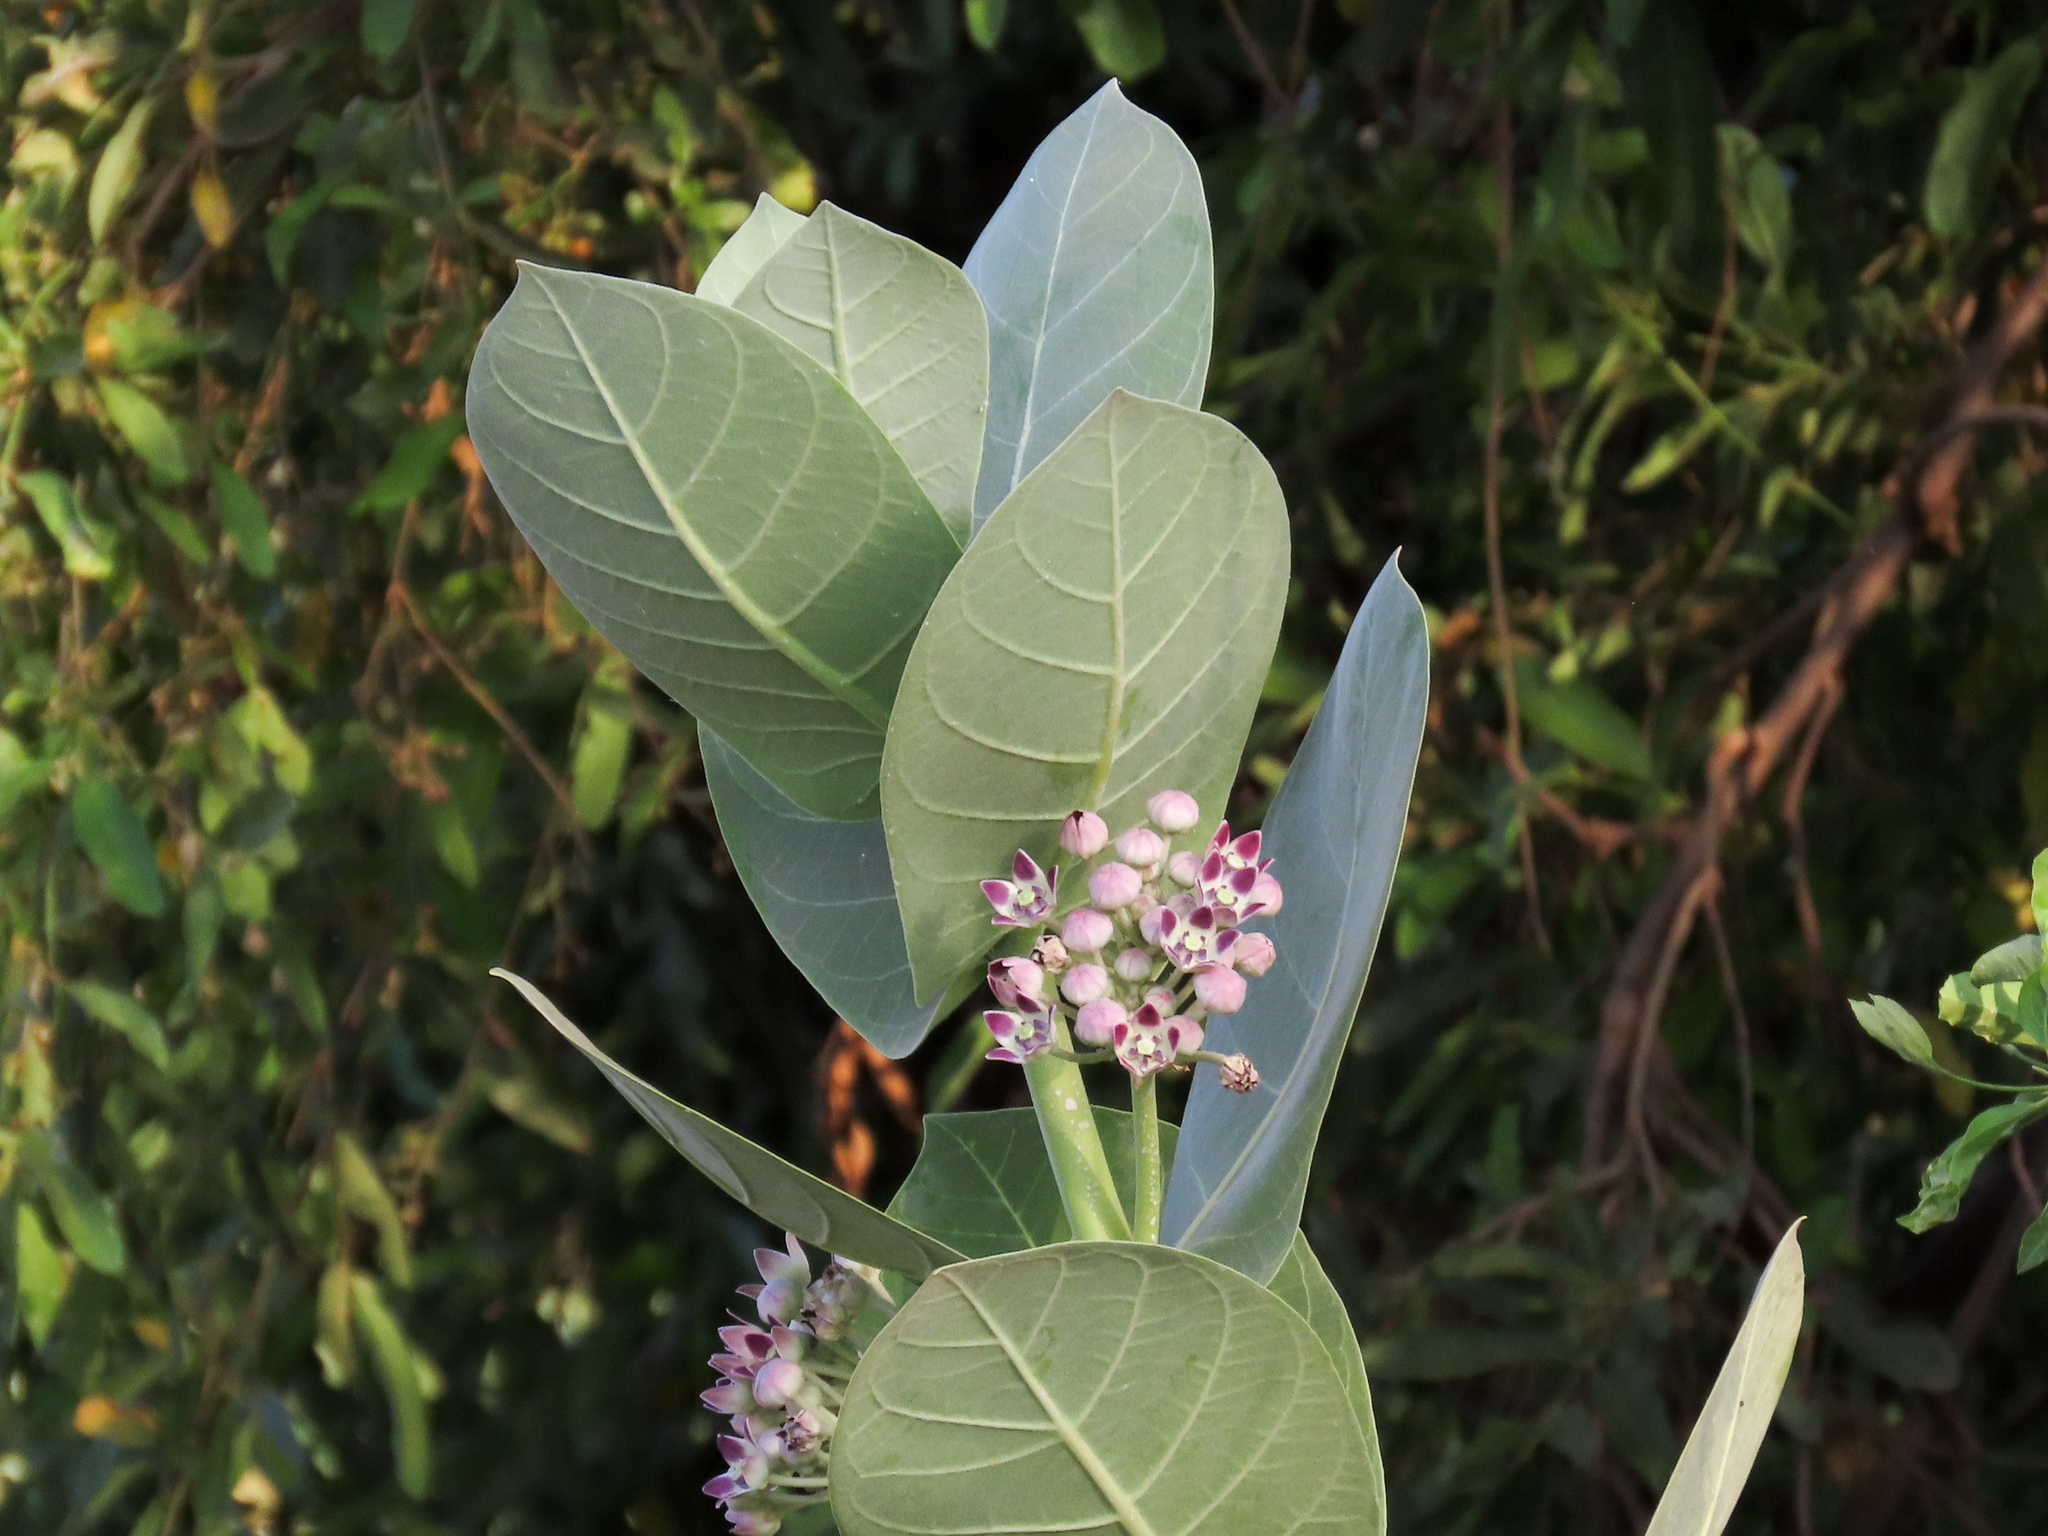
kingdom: Plantae
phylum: Tracheophyta
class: Magnoliopsida
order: Gentianales
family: Apocynaceae
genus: Calotropis
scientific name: Calotropis procera
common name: Roostertree
